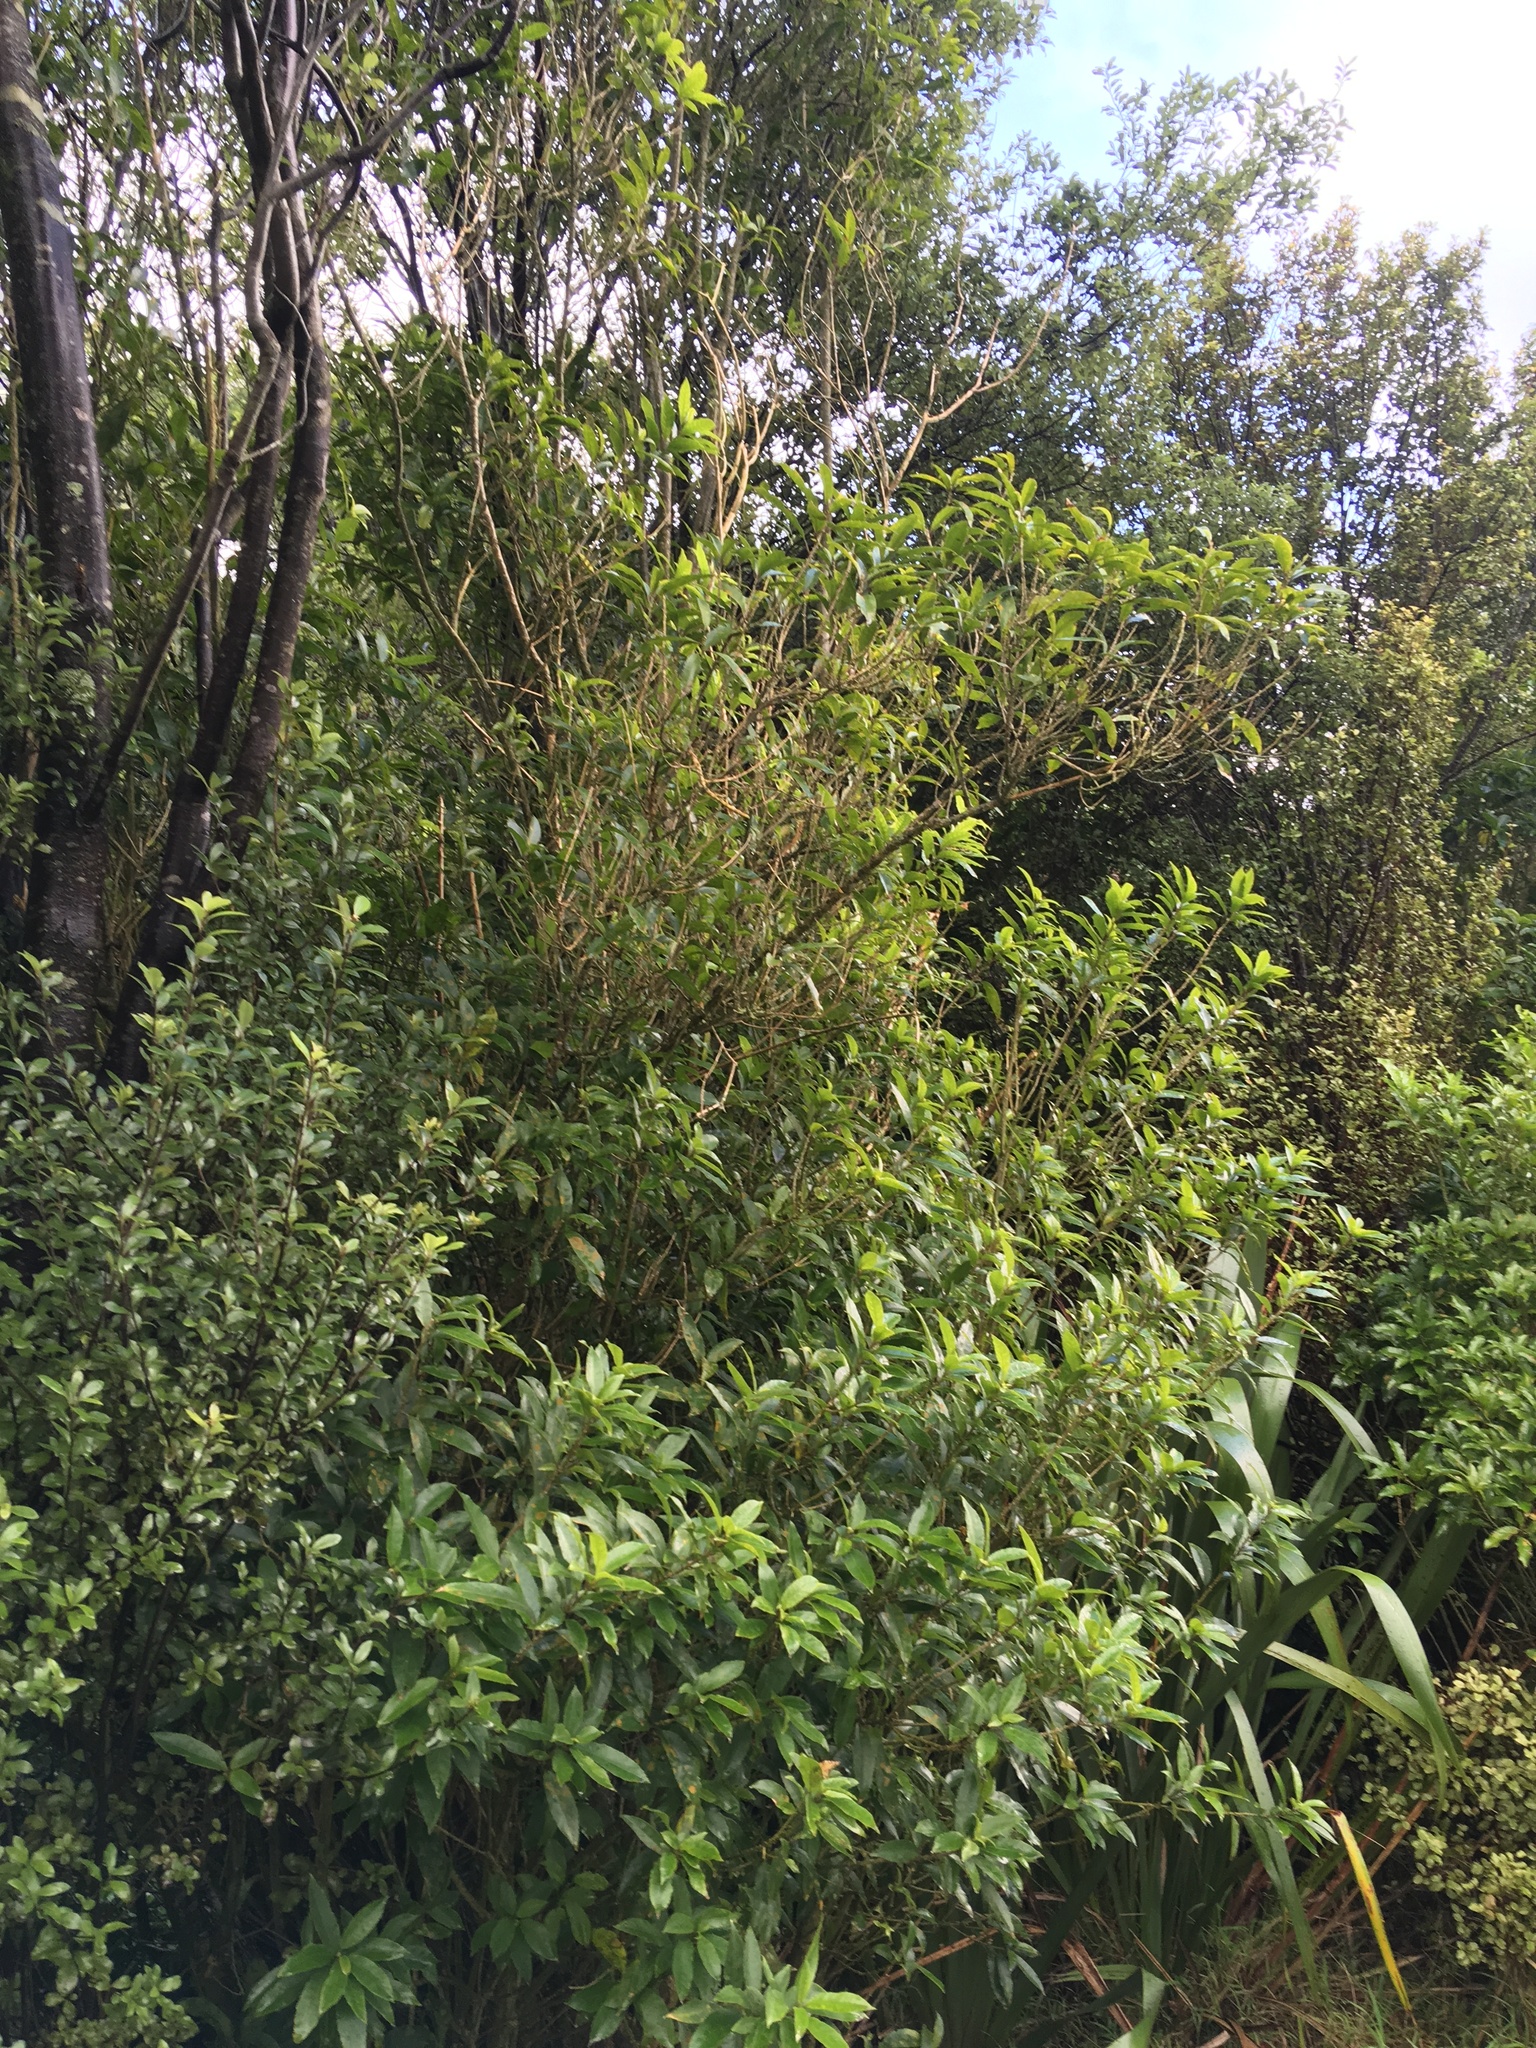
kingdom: Plantae
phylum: Tracheophyta
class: Magnoliopsida
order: Malpighiales
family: Violaceae
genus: Melicytus
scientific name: Melicytus ramiflorus
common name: Mahoe
